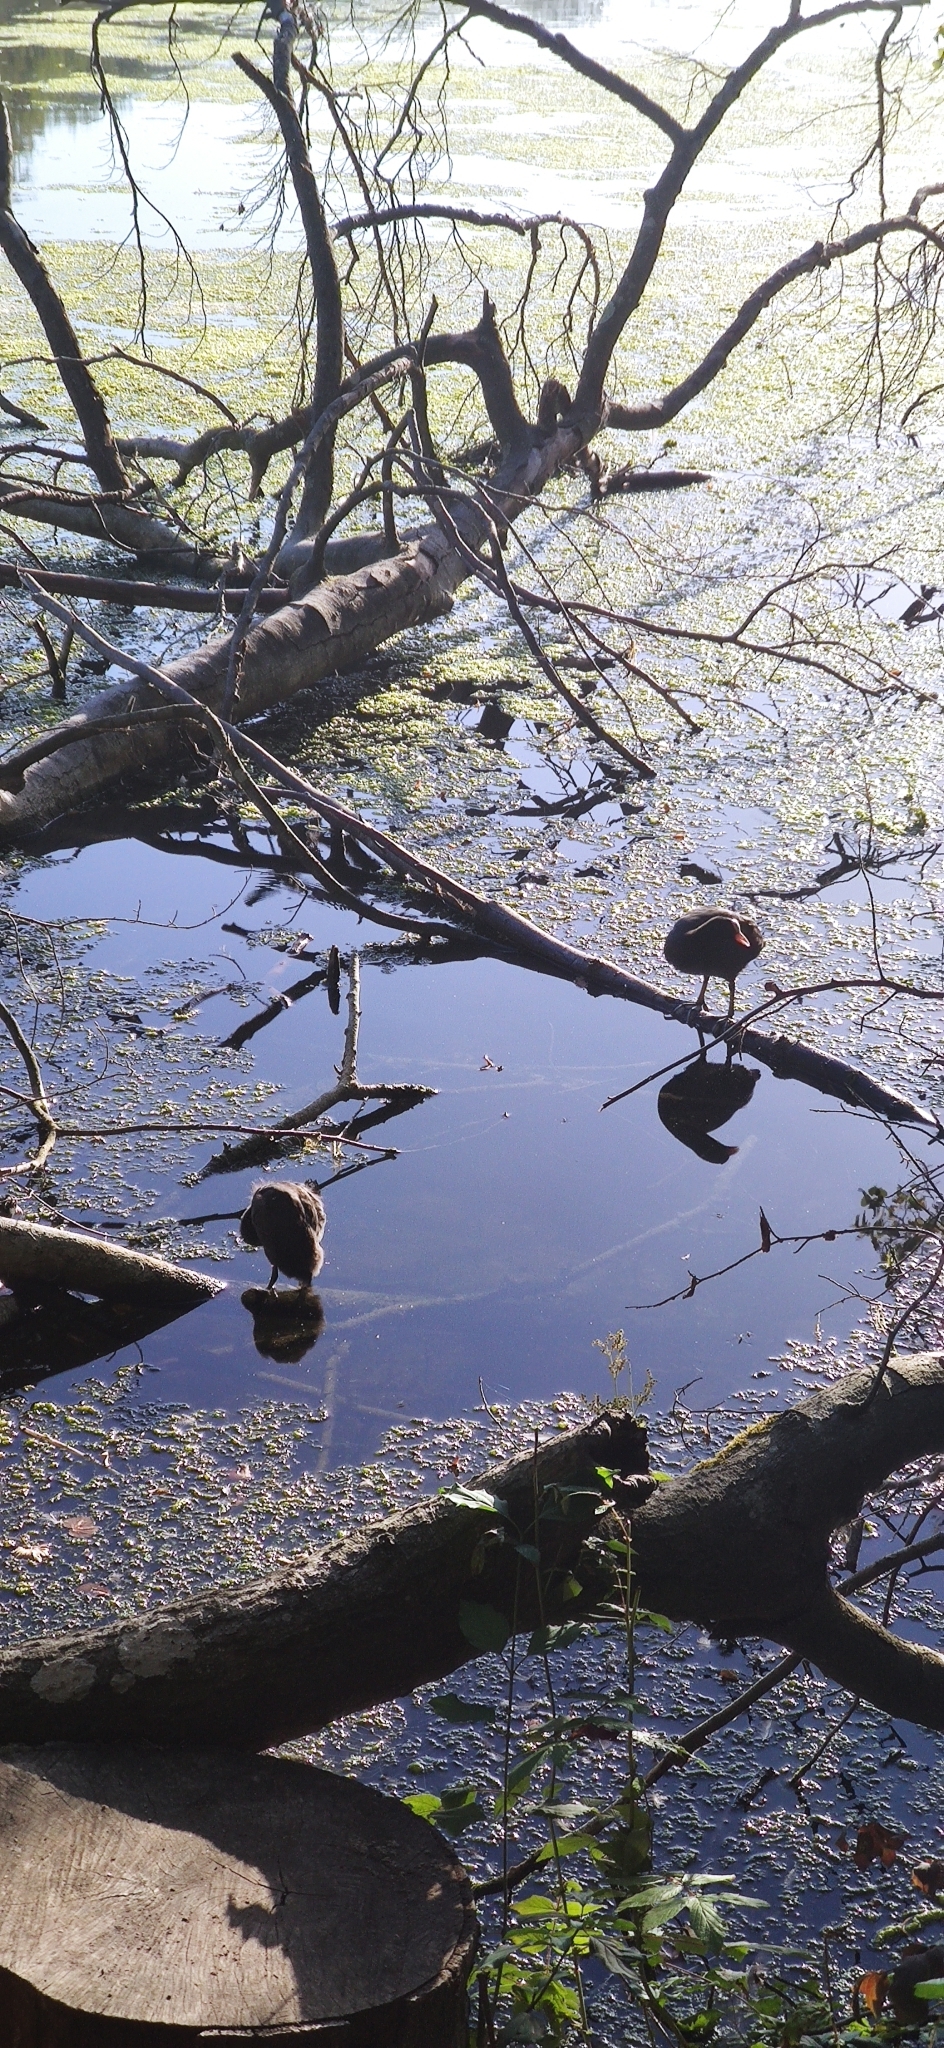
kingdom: Animalia
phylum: Chordata
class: Aves
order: Gruiformes
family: Rallidae
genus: Gallinula
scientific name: Gallinula chloropus
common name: Common moorhen
